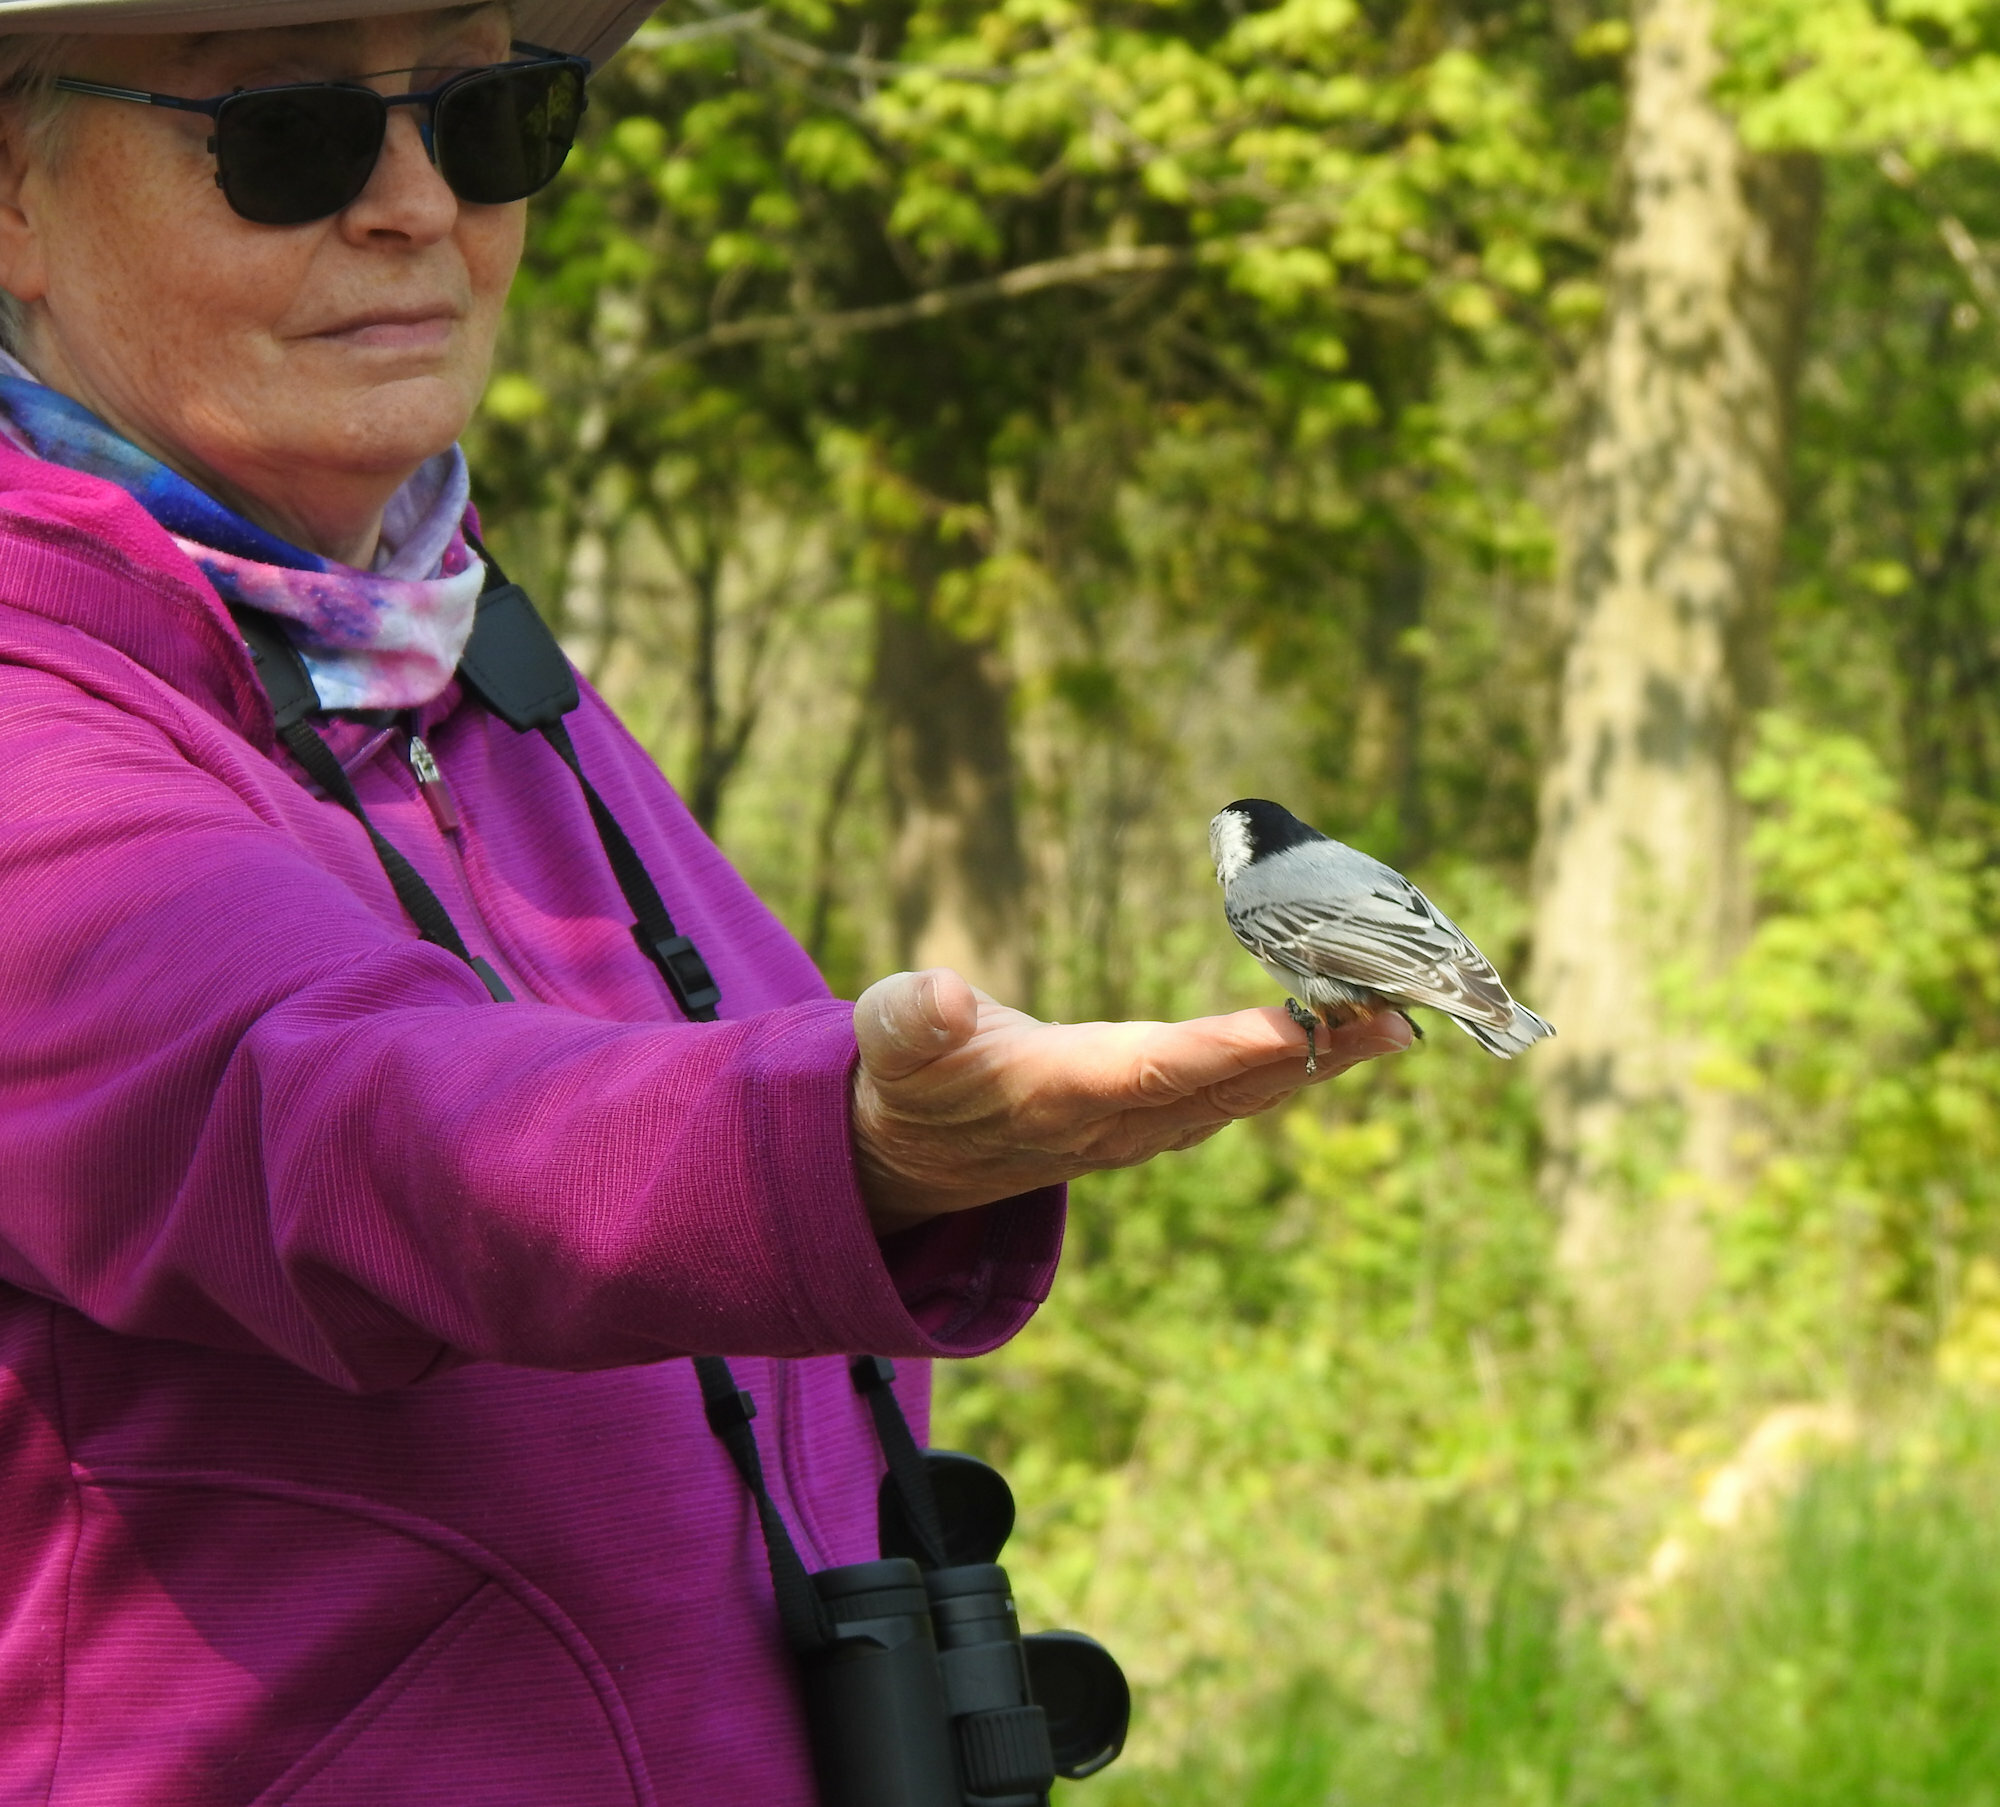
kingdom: Animalia
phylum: Chordata
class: Aves
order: Passeriformes
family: Sittidae
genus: Sitta
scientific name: Sitta carolinensis
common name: White-breasted nuthatch
